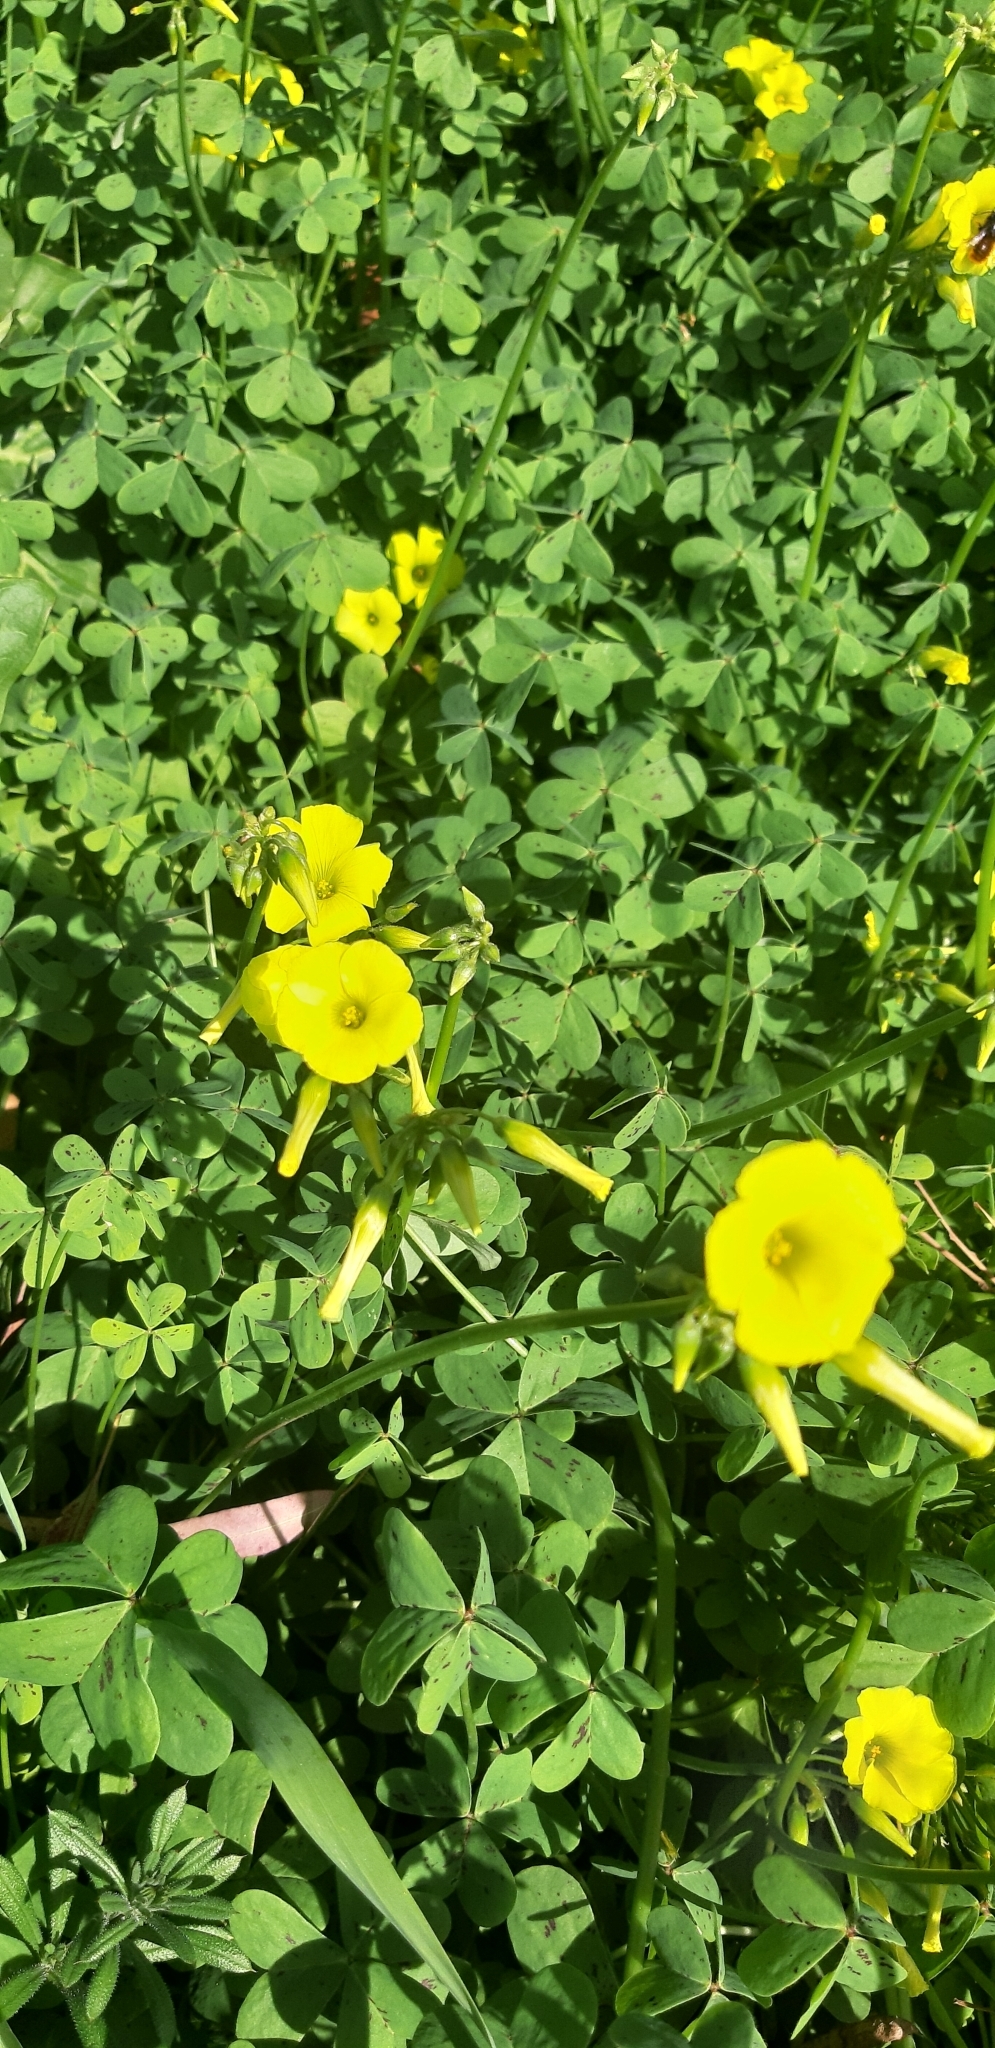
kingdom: Plantae
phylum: Tracheophyta
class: Magnoliopsida
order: Oxalidales
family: Oxalidaceae
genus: Oxalis
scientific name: Oxalis pes-caprae
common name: Bermuda-buttercup
